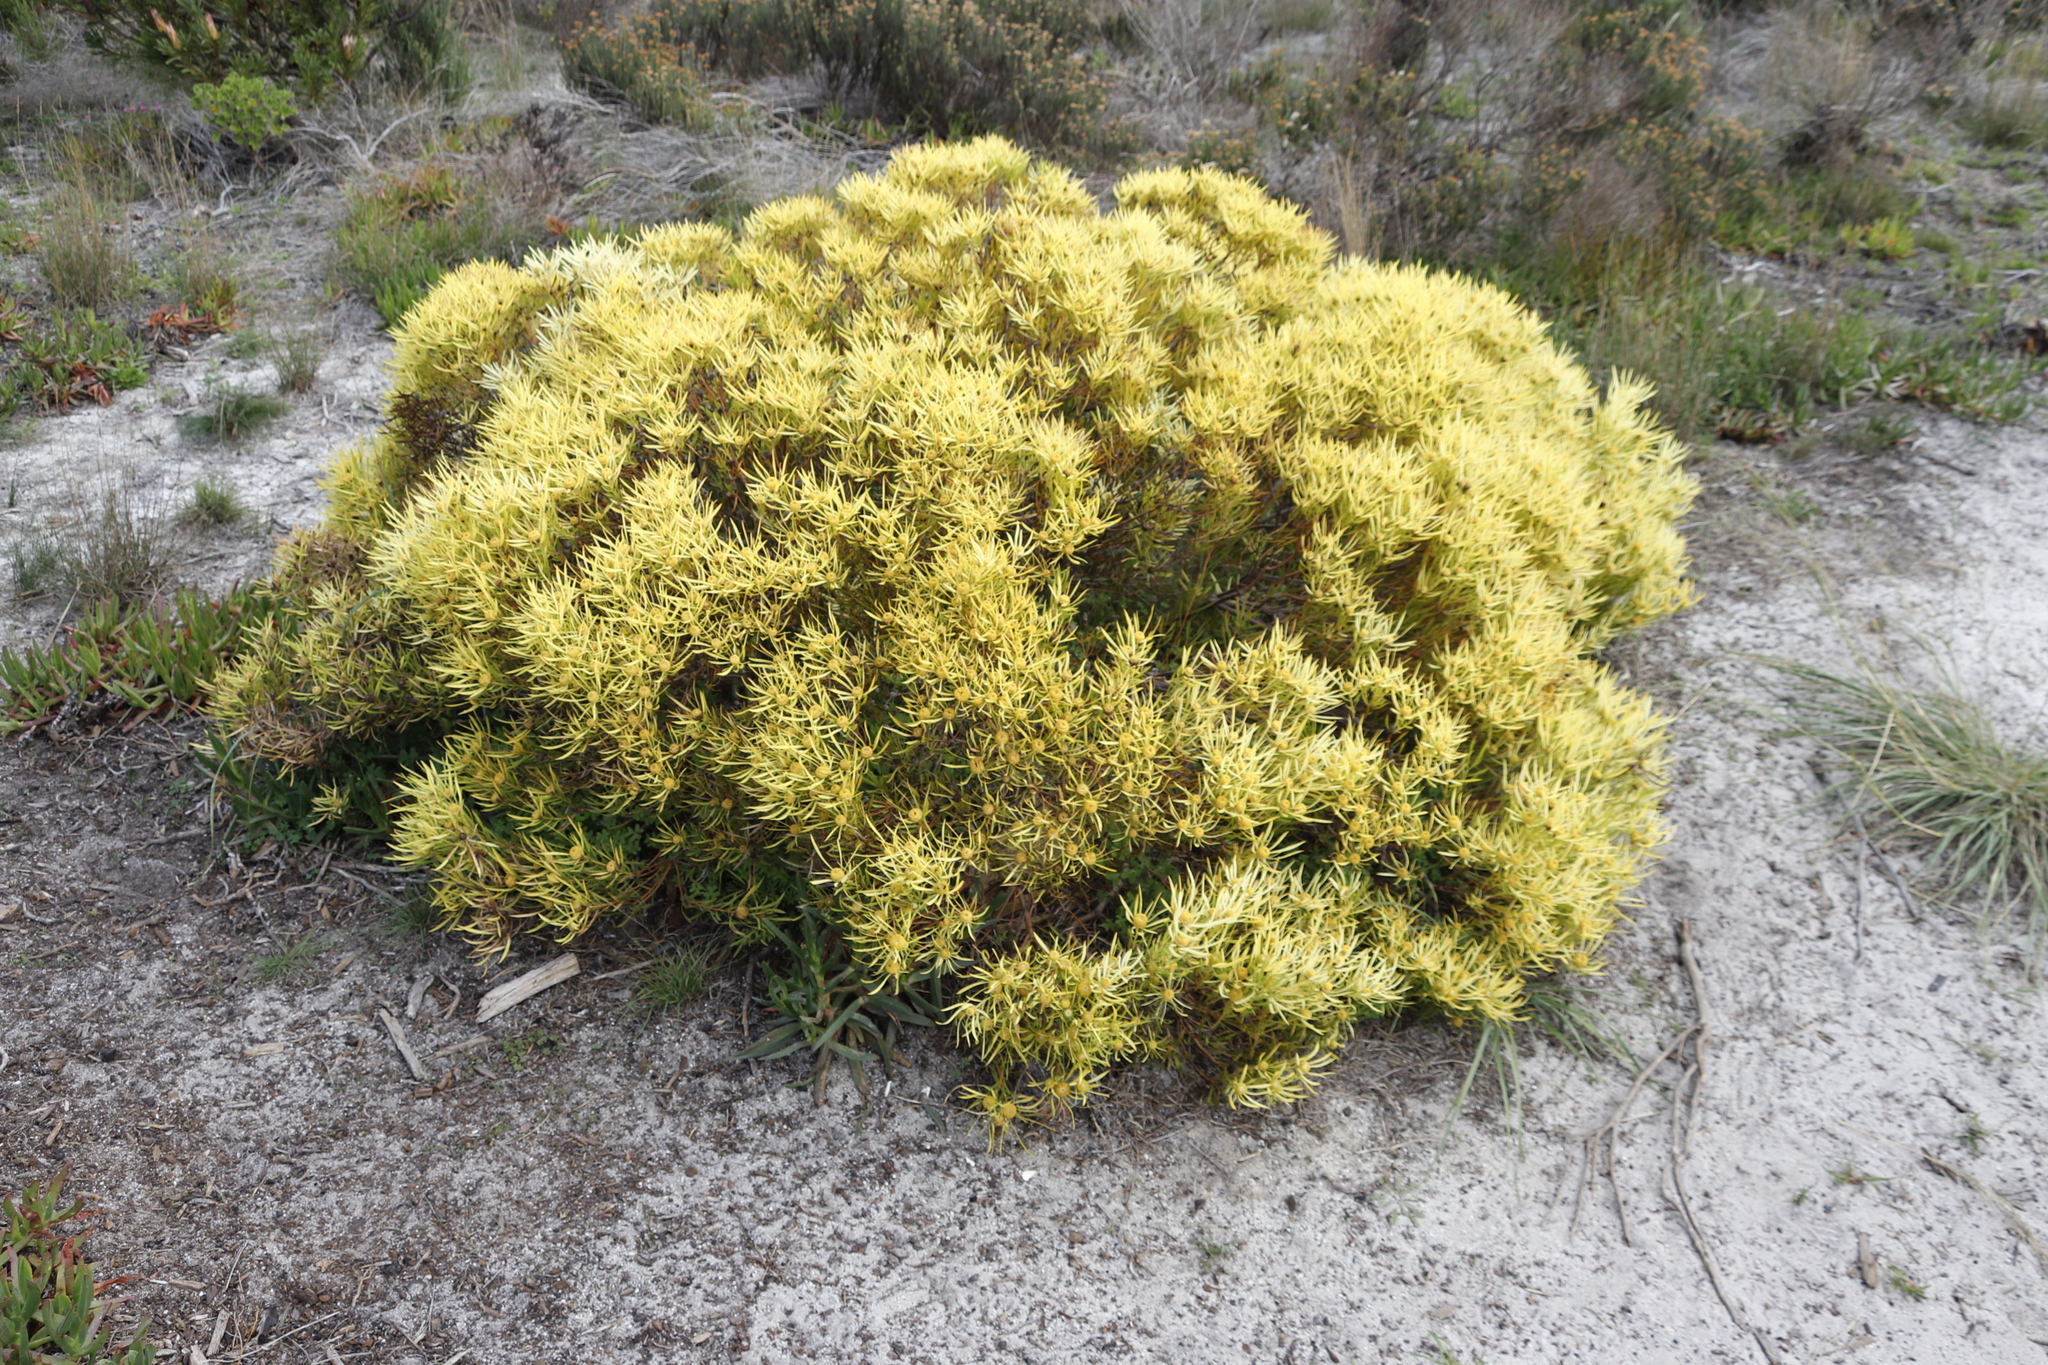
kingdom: Plantae
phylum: Tracheophyta
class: Magnoliopsida
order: Proteales
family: Proteaceae
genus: Leucadendron
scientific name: Leucadendron salignum
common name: Common sunshine conebush
